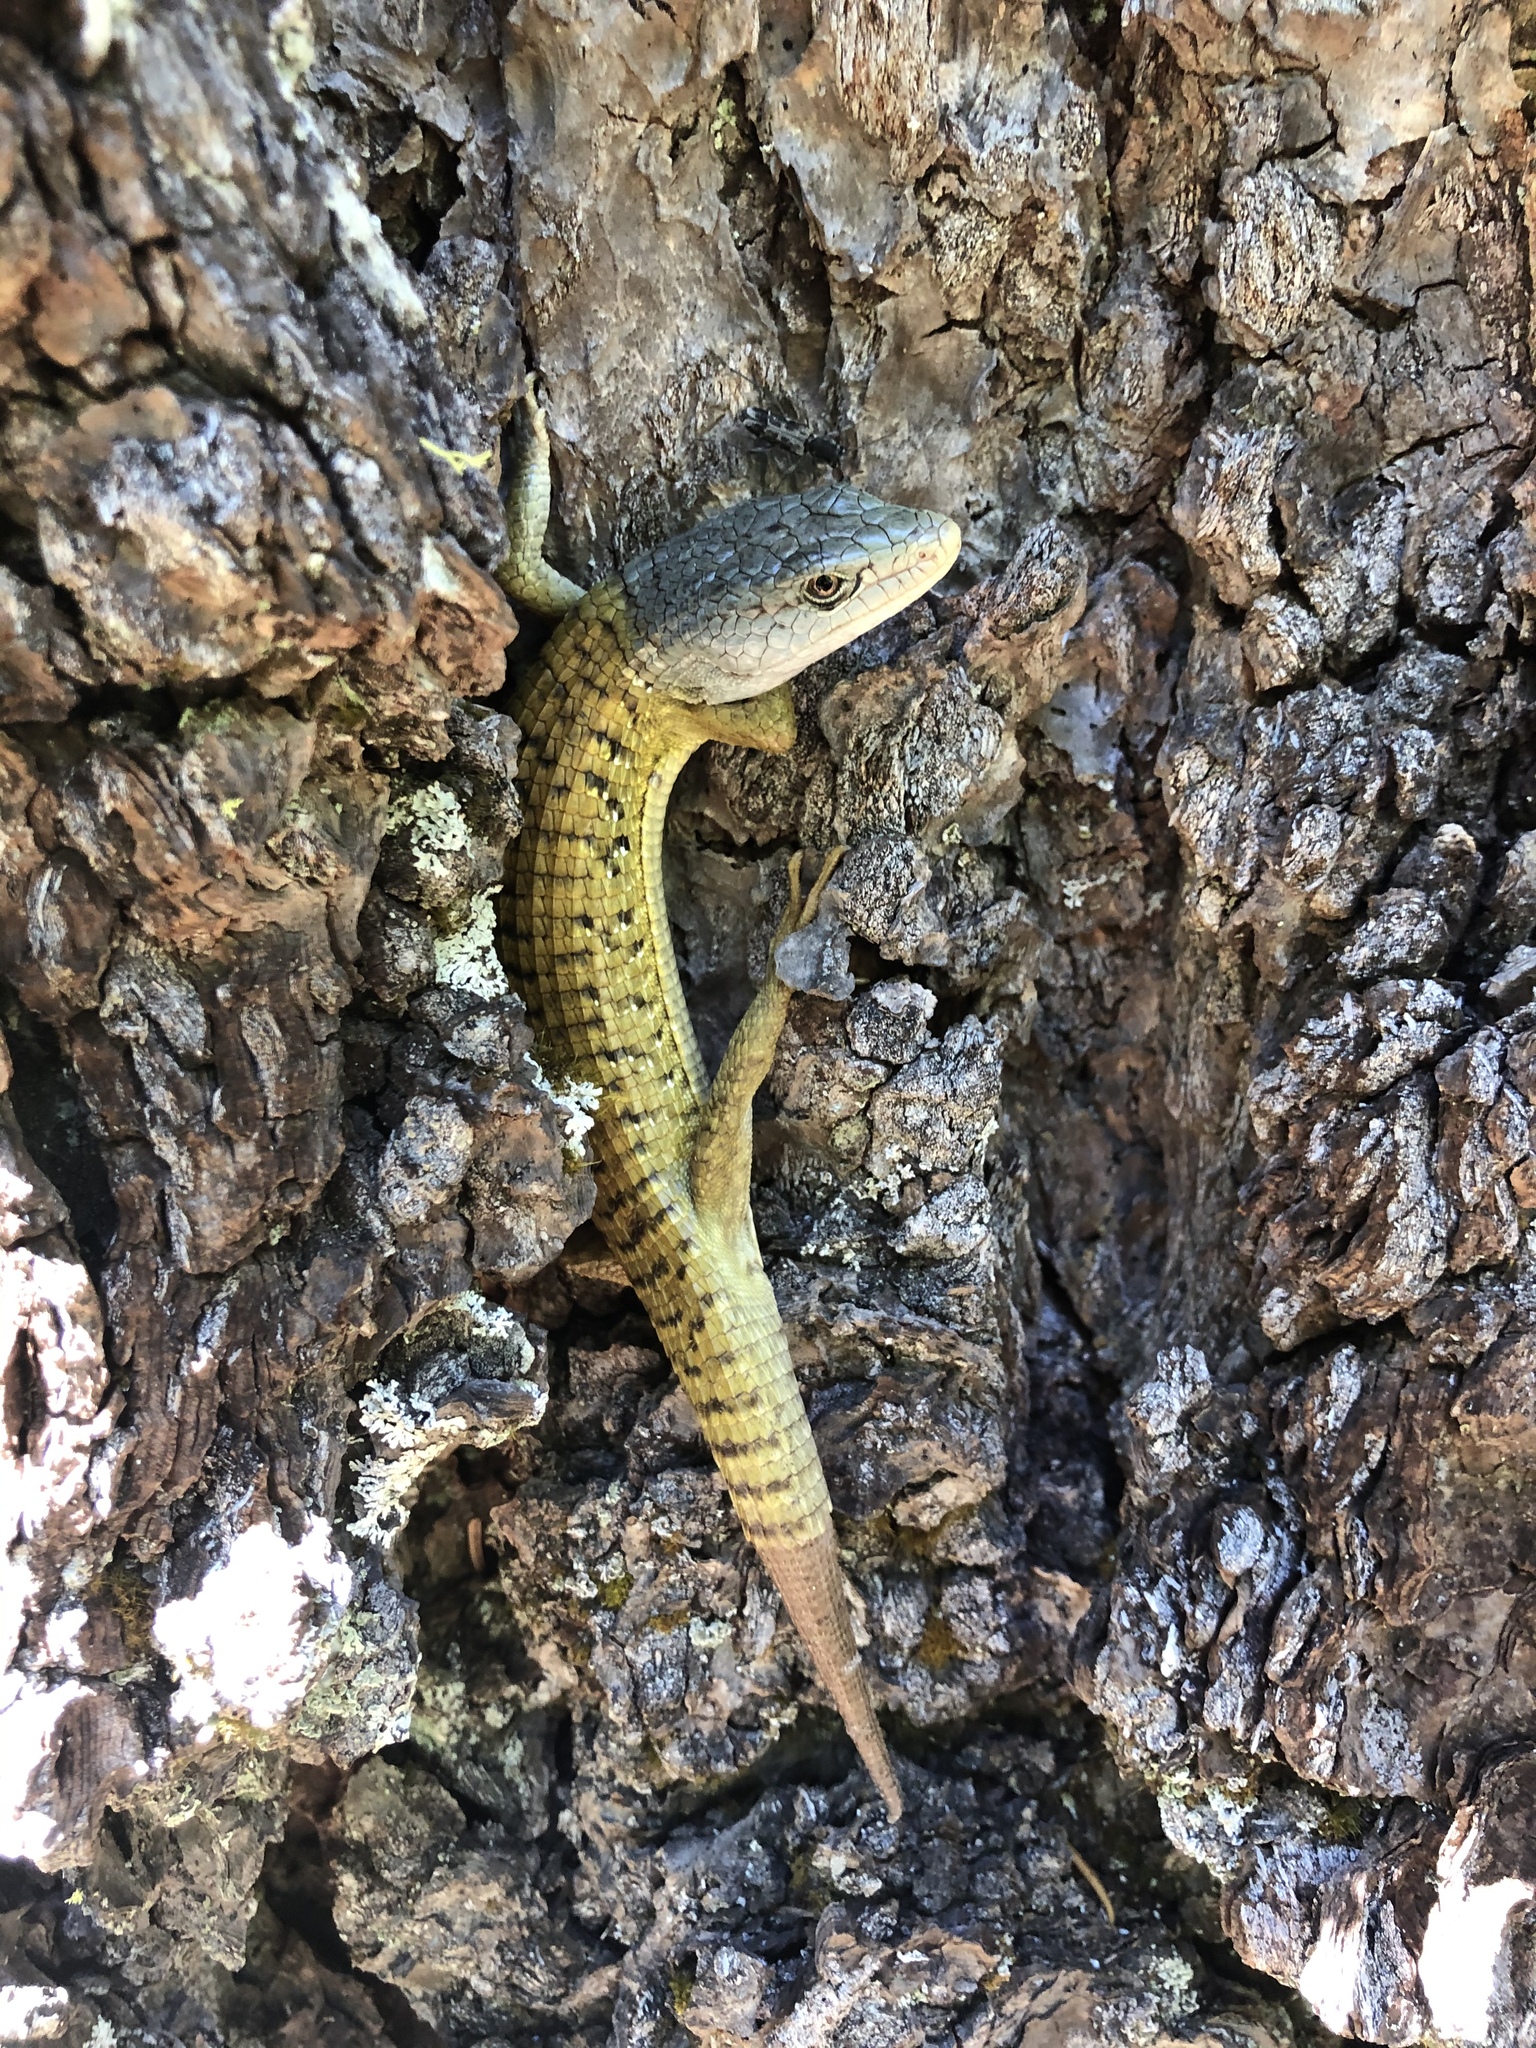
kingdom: Animalia
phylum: Chordata
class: Squamata
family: Anguidae
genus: Elgaria
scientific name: Elgaria coerulea
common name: Northern alligator lizard
